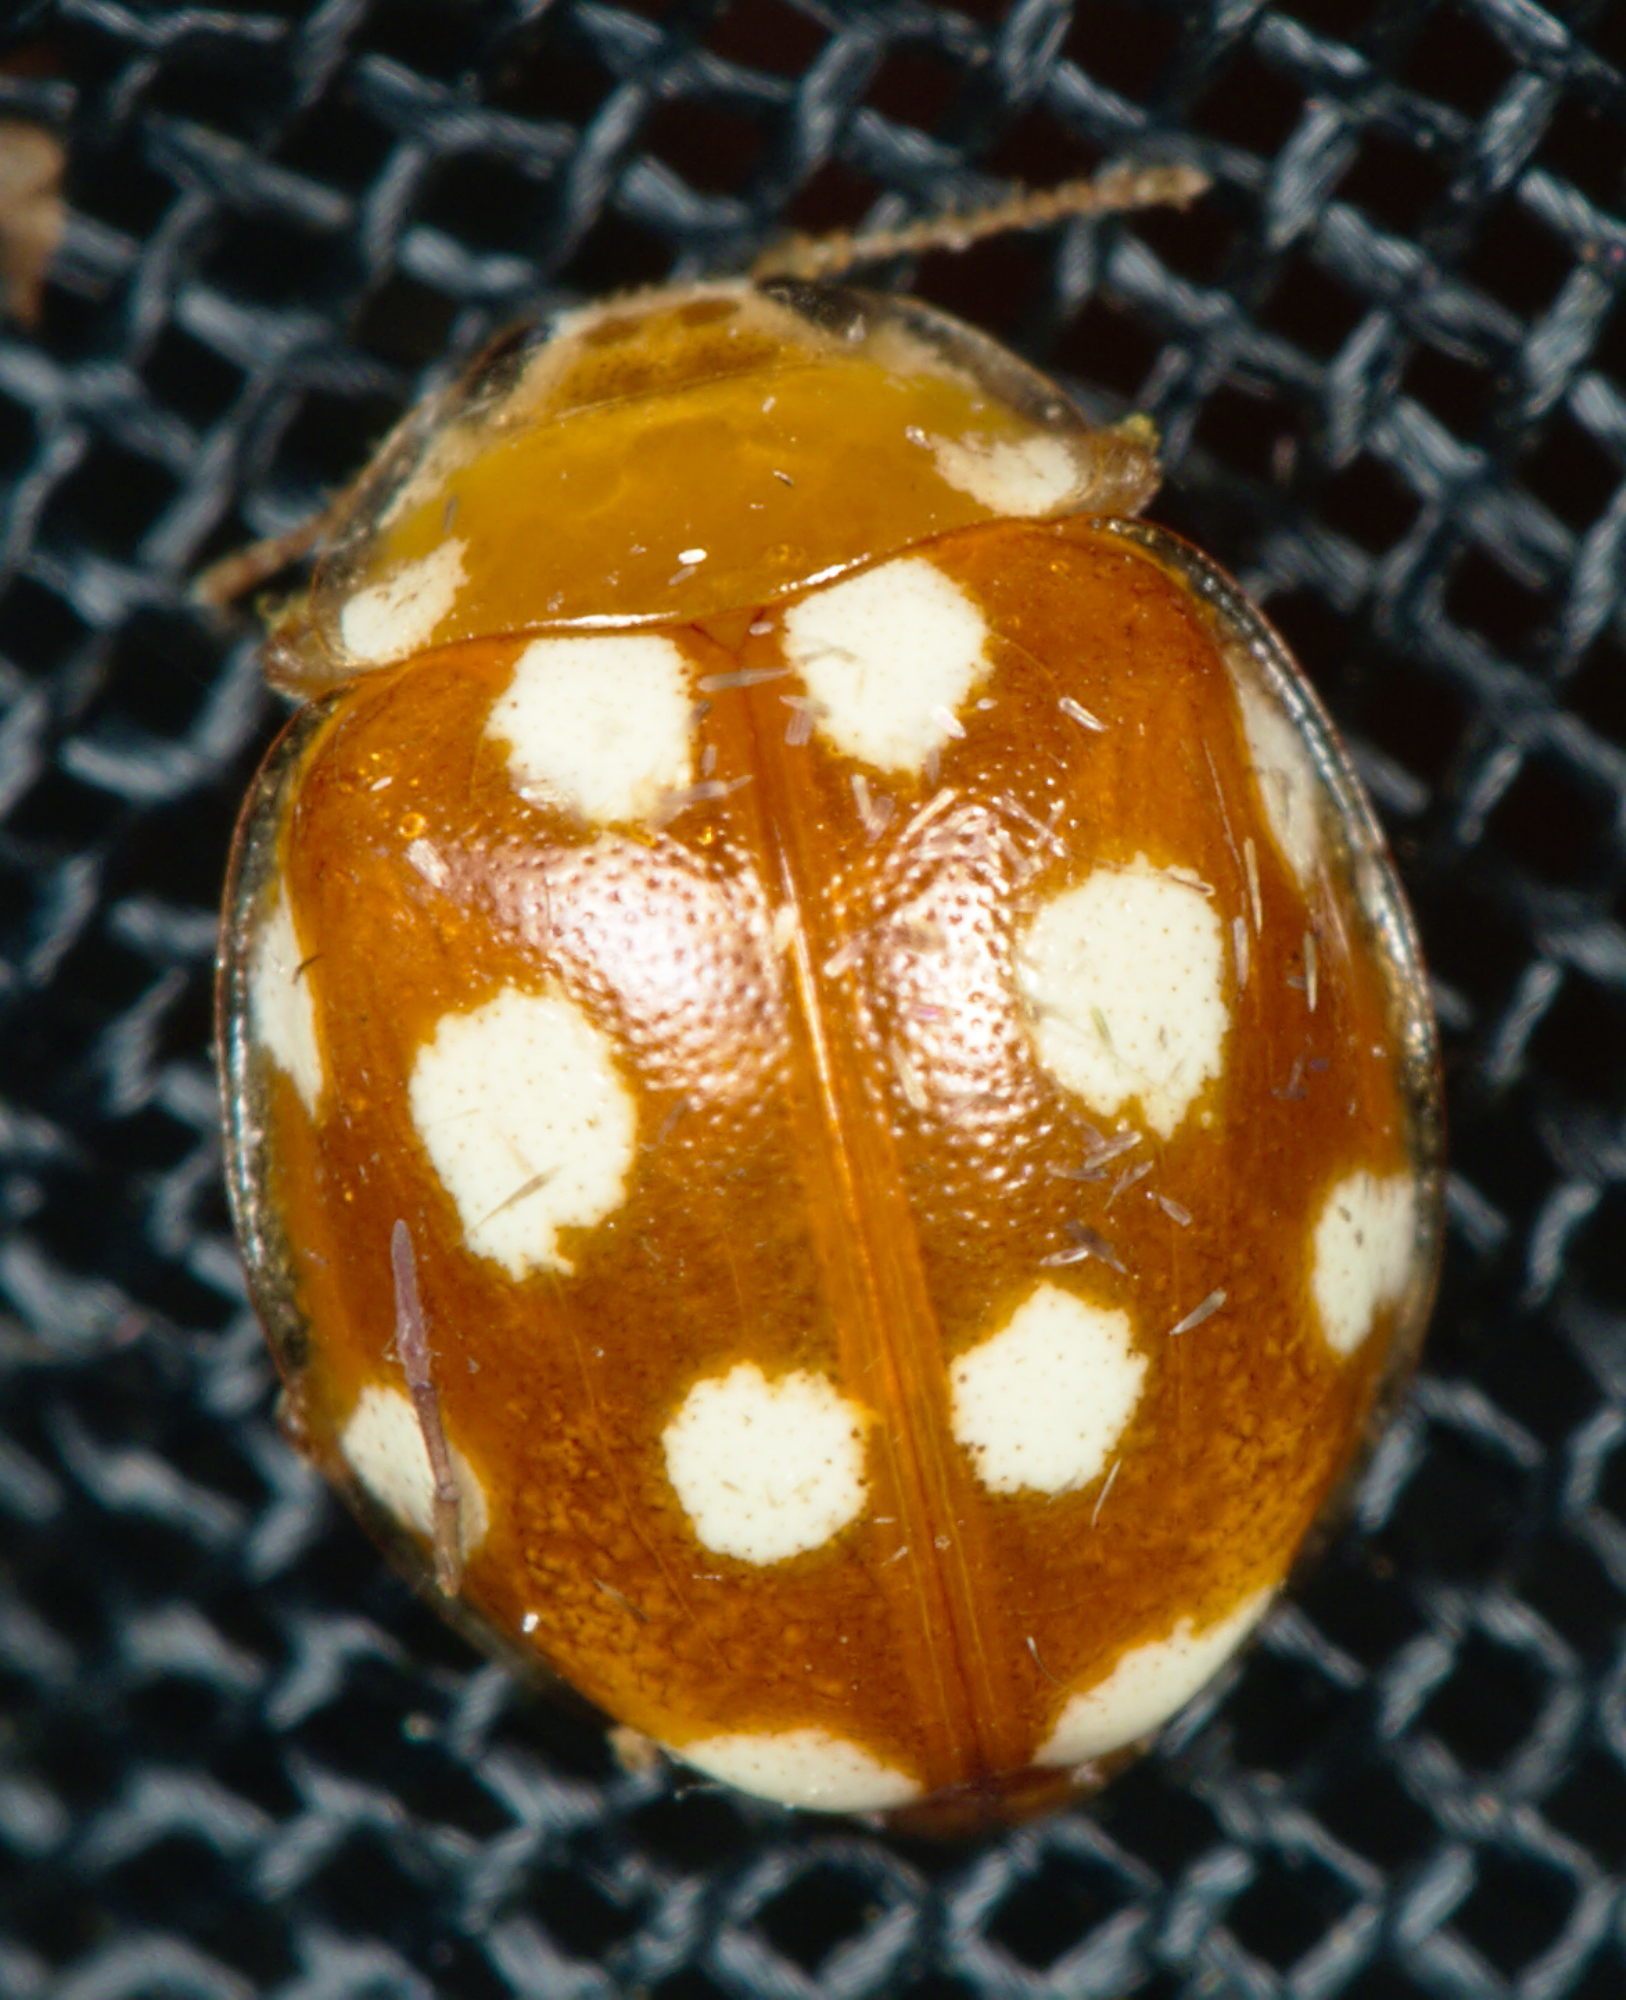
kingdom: Animalia
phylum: Arthropoda
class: Insecta
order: Coleoptera
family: Coccinellidae
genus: Vibidia
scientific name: Vibidia duodecimguttata
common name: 12-spot ladybird
